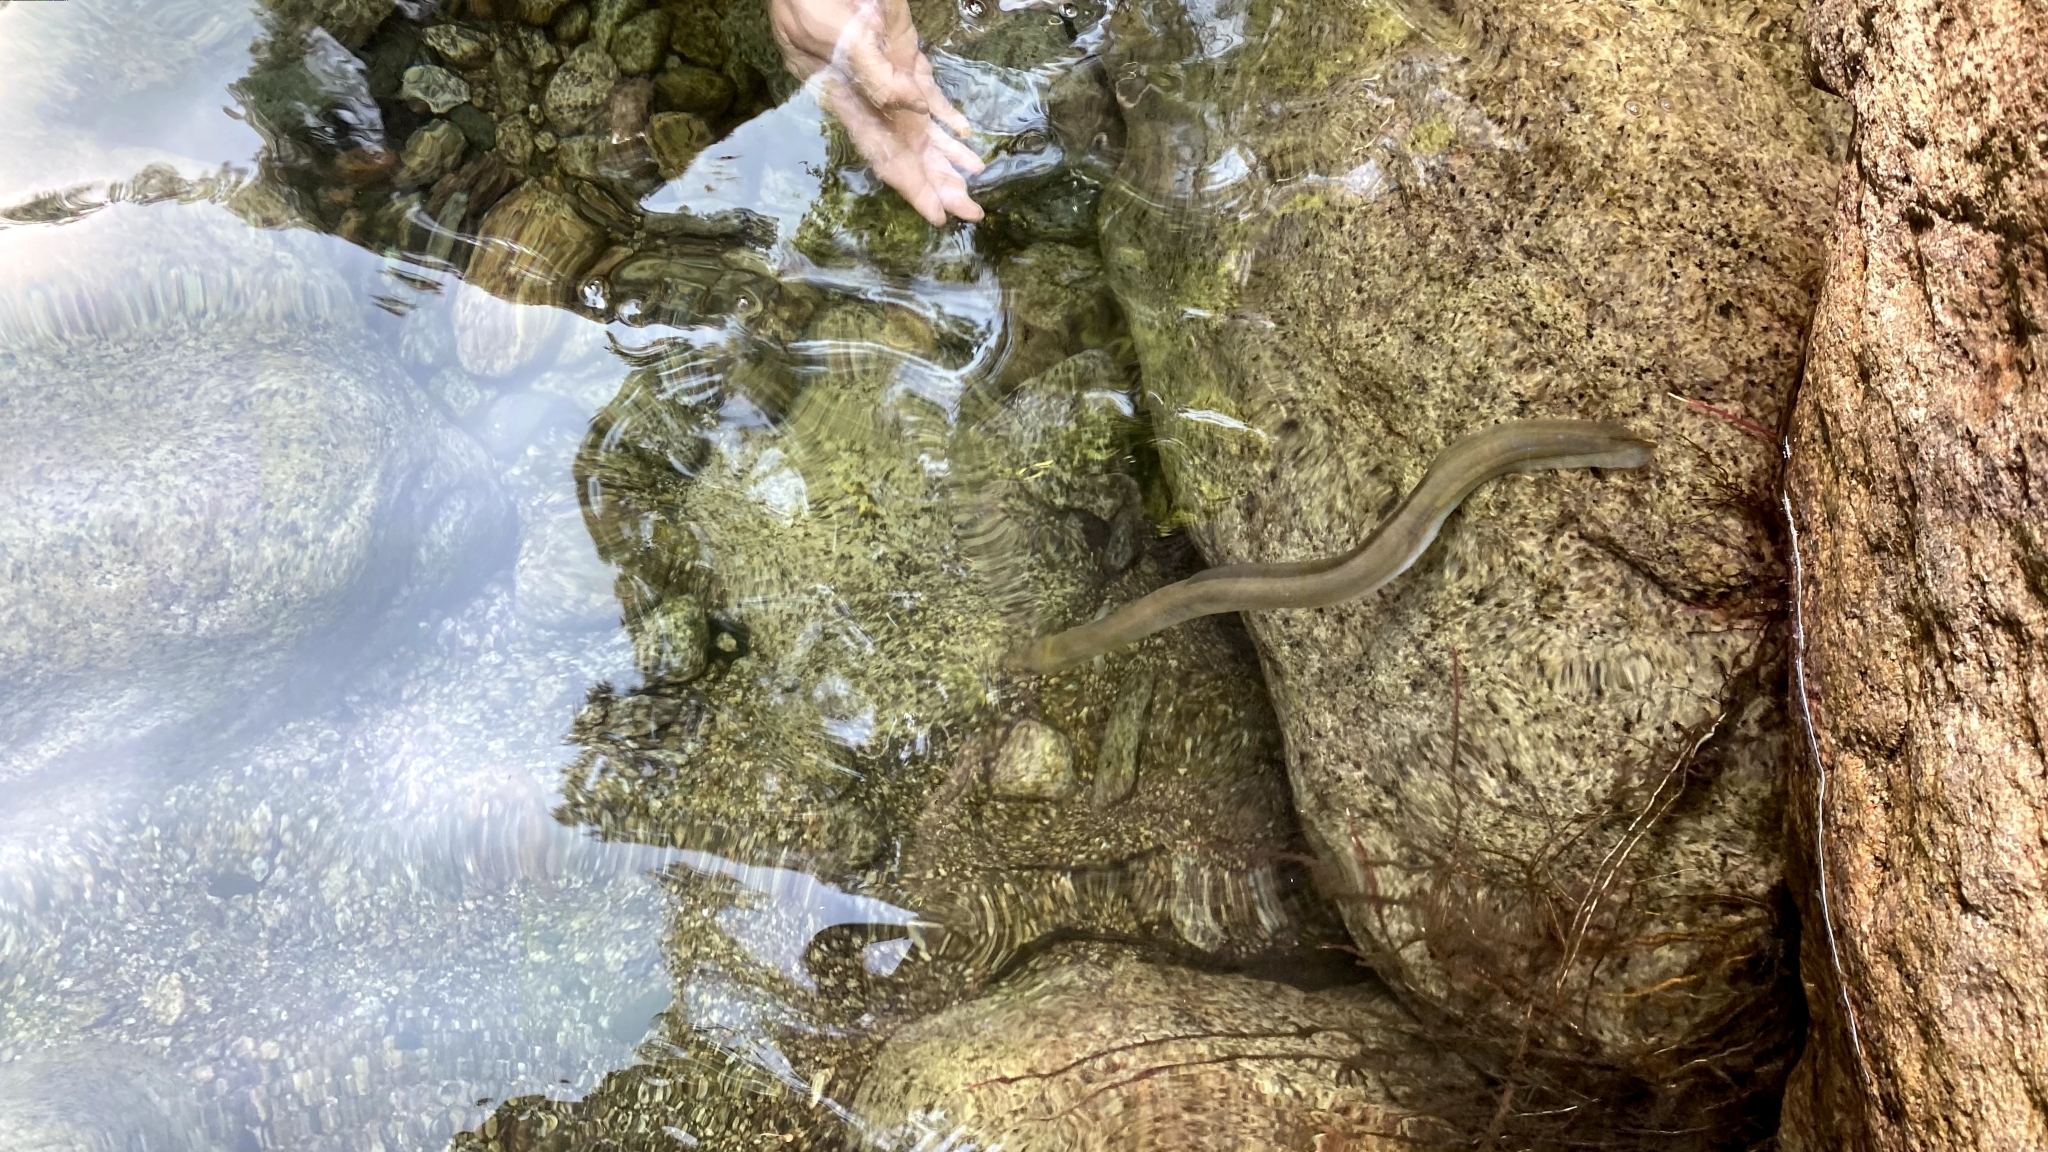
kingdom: Animalia
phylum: Chordata
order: Anguilliformes
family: Anguillidae
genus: Anguilla
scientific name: Anguilla anguilla
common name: European eel
